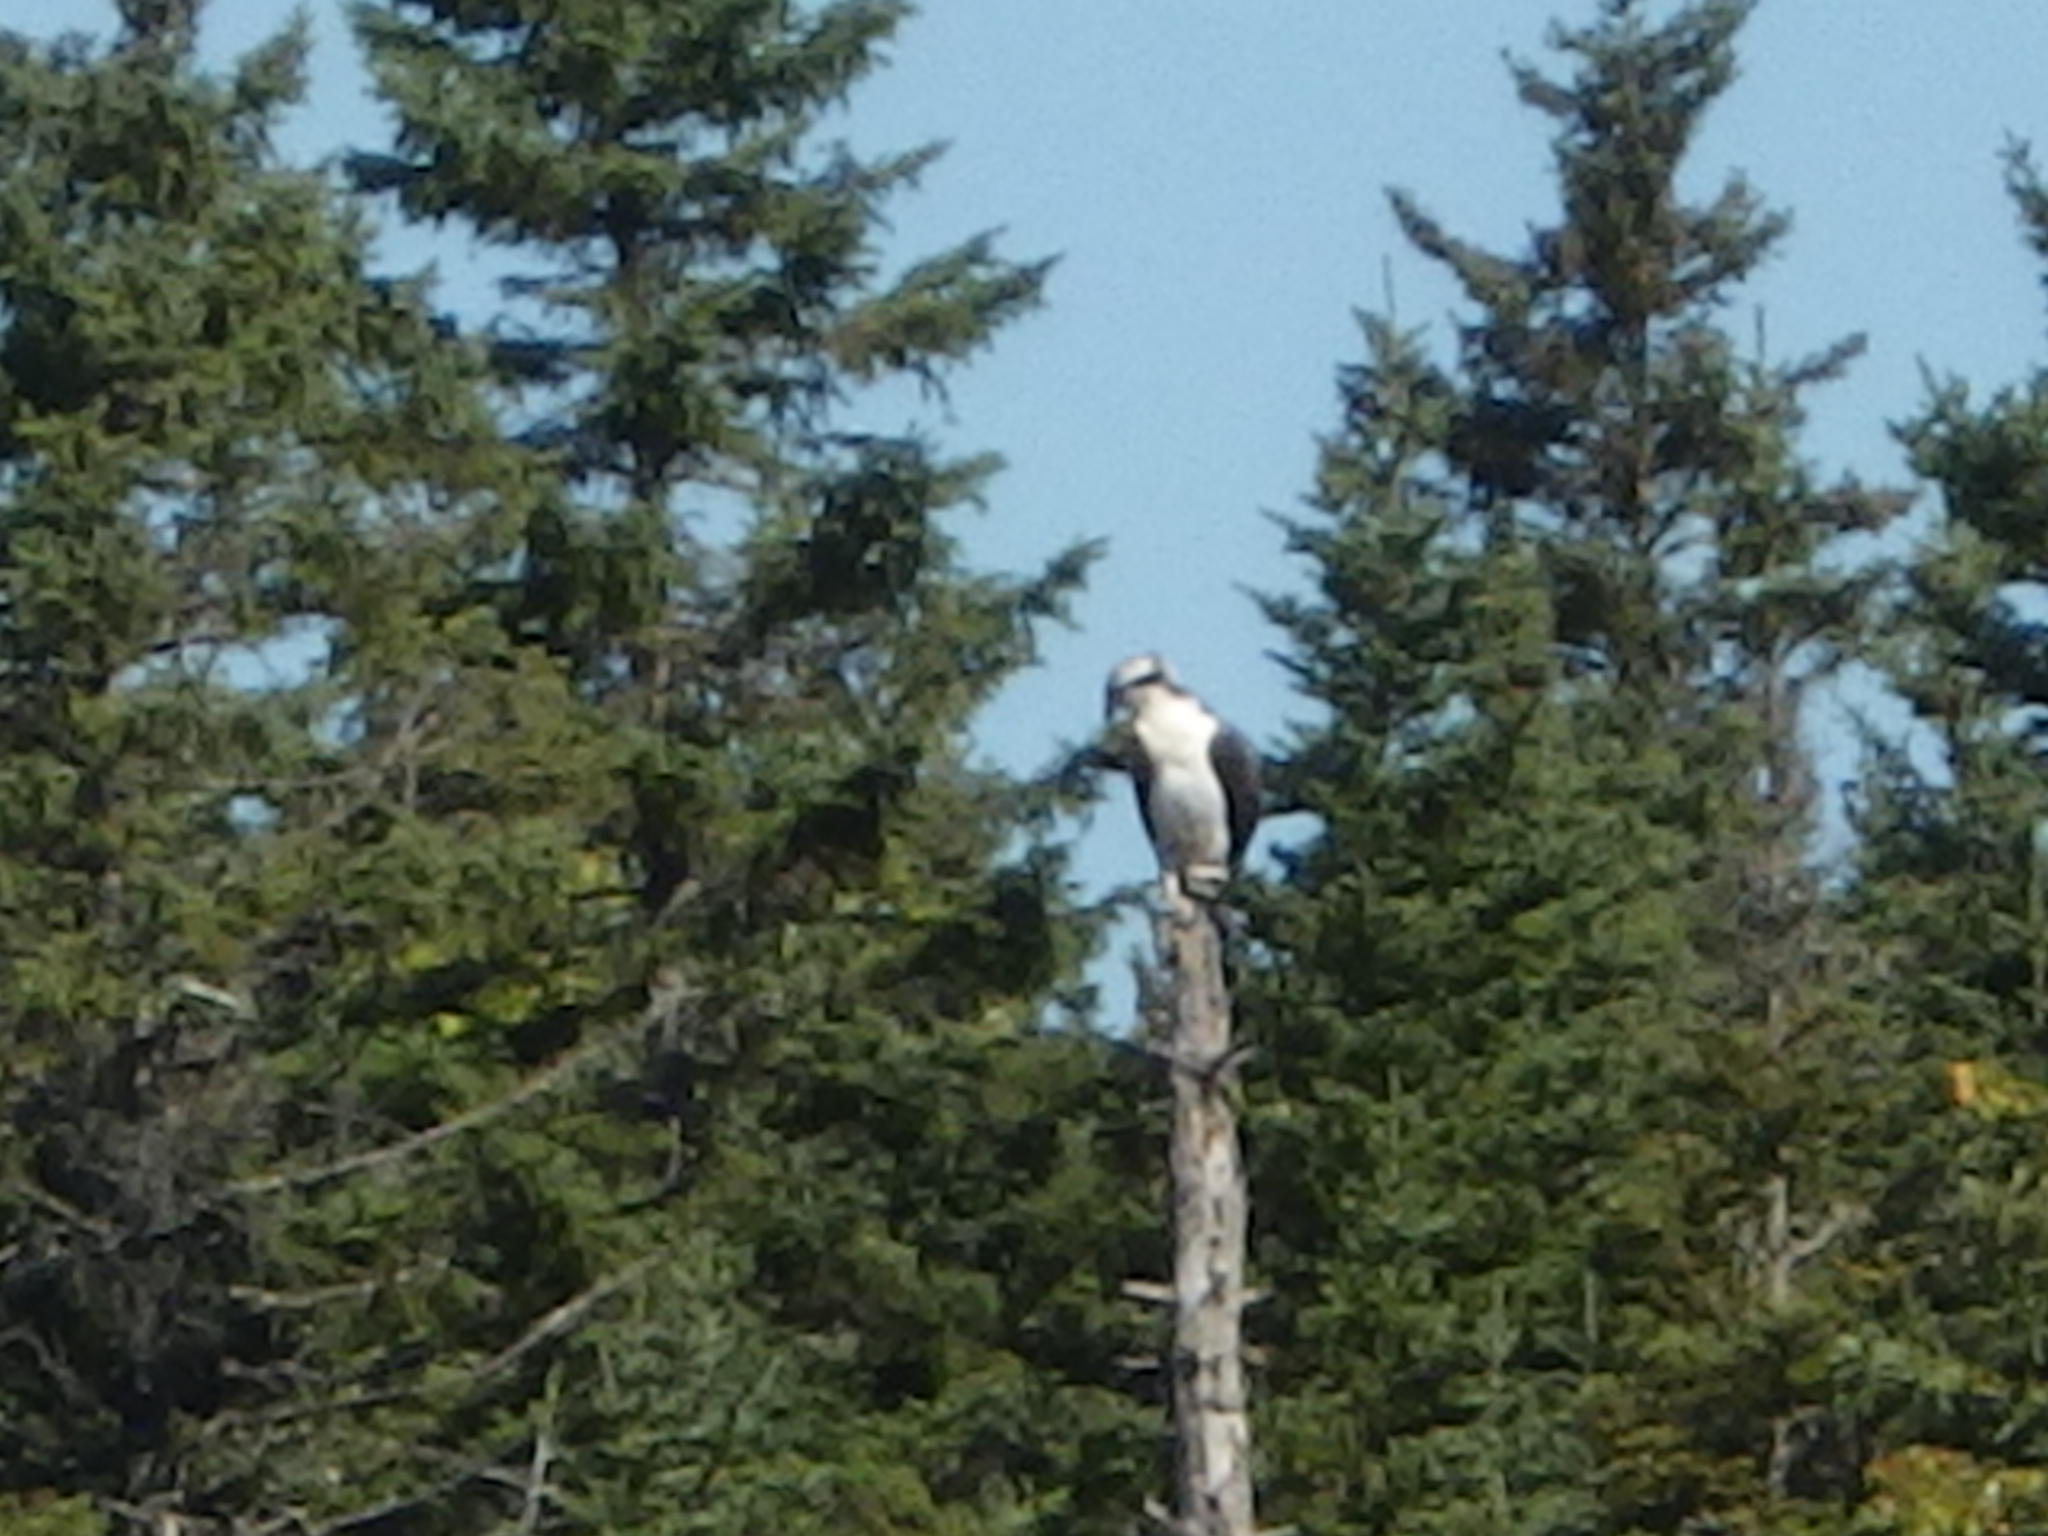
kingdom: Animalia
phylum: Chordata
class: Aves
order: Accipitriformes
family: Pandionidae
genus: Pandion
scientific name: Pandion haliaetus
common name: Osprey
